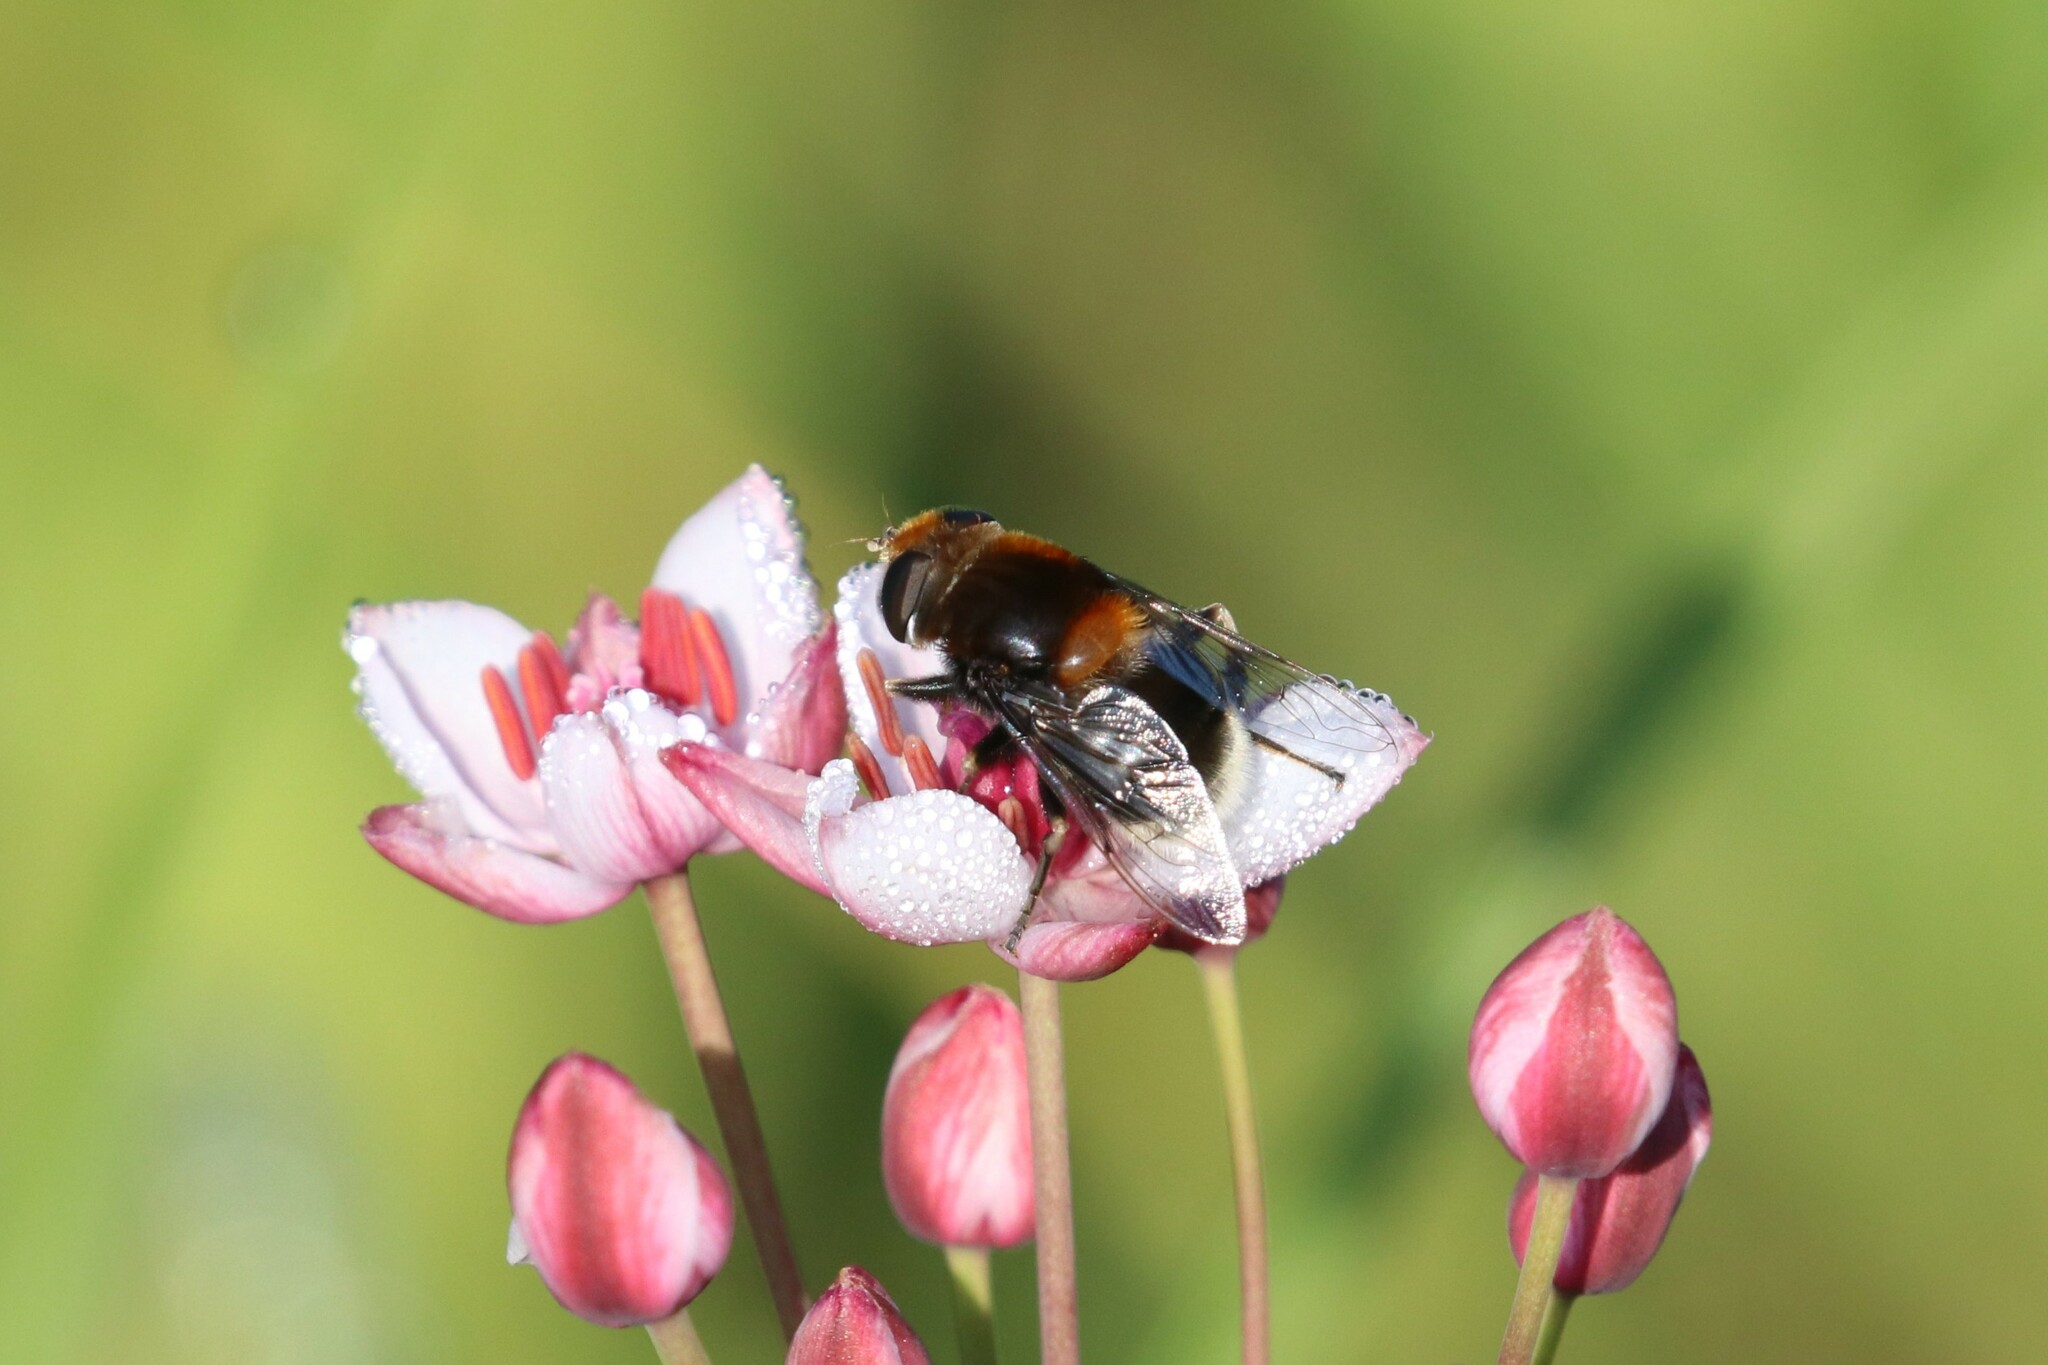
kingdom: Animalia
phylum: Arthropoda
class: Insecta
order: Diptera
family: Syrphidae
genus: Eristalis
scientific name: Eristalis intricaria
